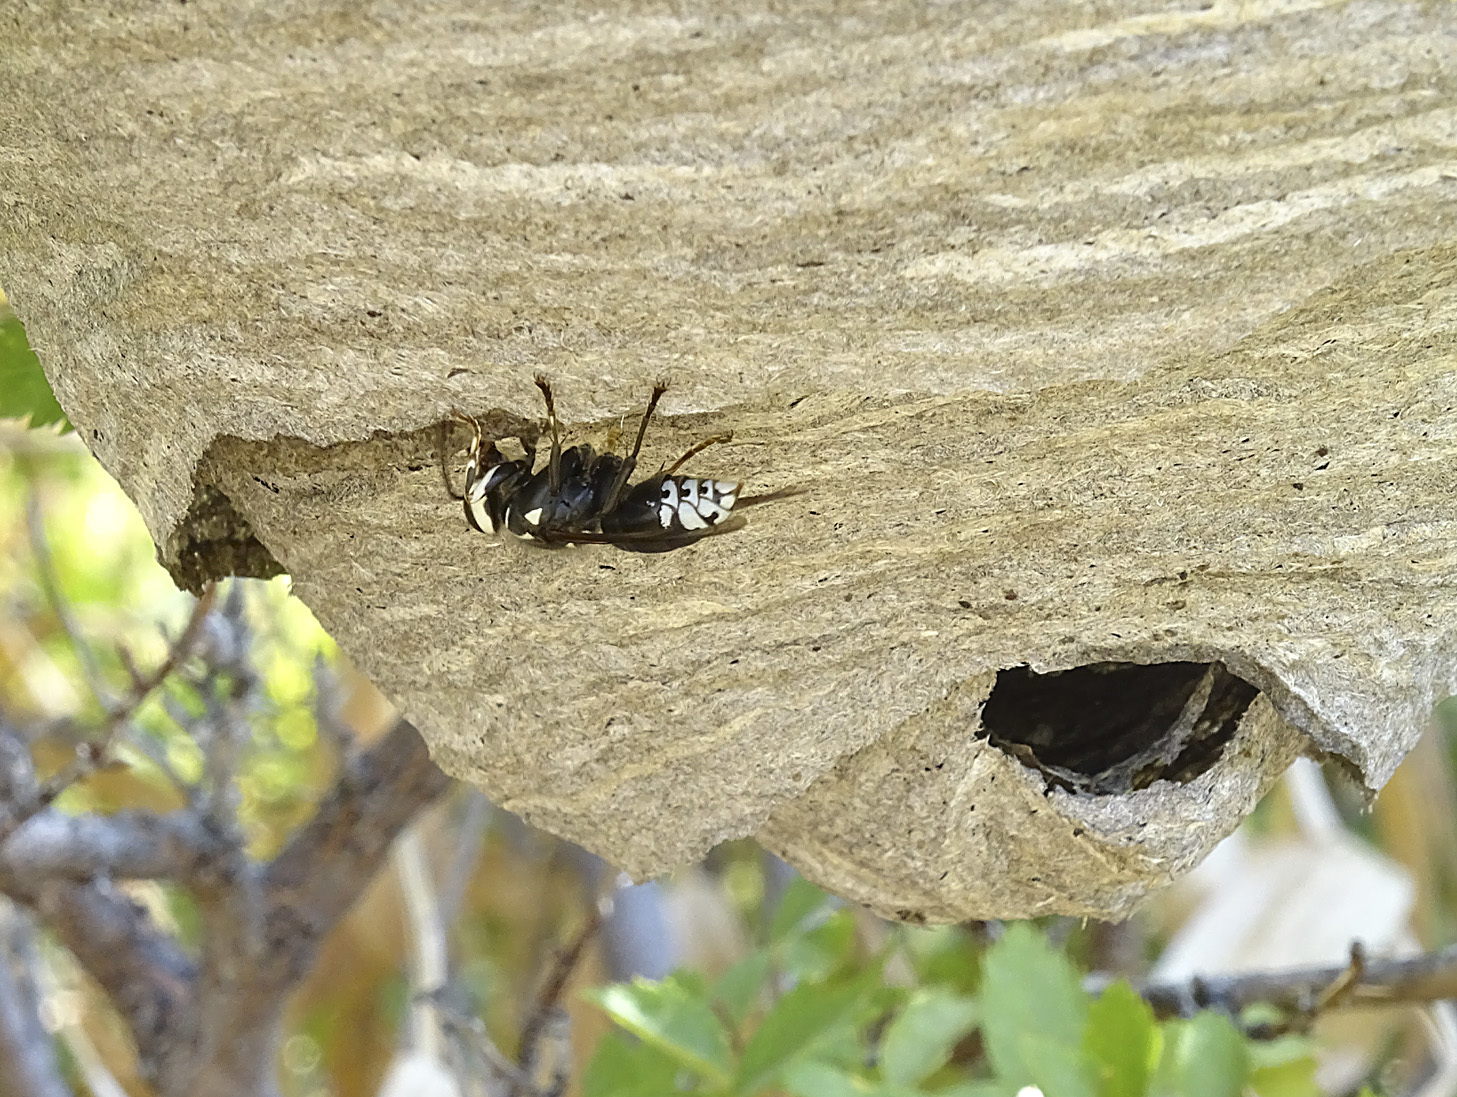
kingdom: Animalia
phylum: Arthropoda
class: Insecta
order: Hymenoptera
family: Vespidae
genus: Dolichovespula
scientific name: Dolichovespula maculata
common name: Bald-faced hornet
